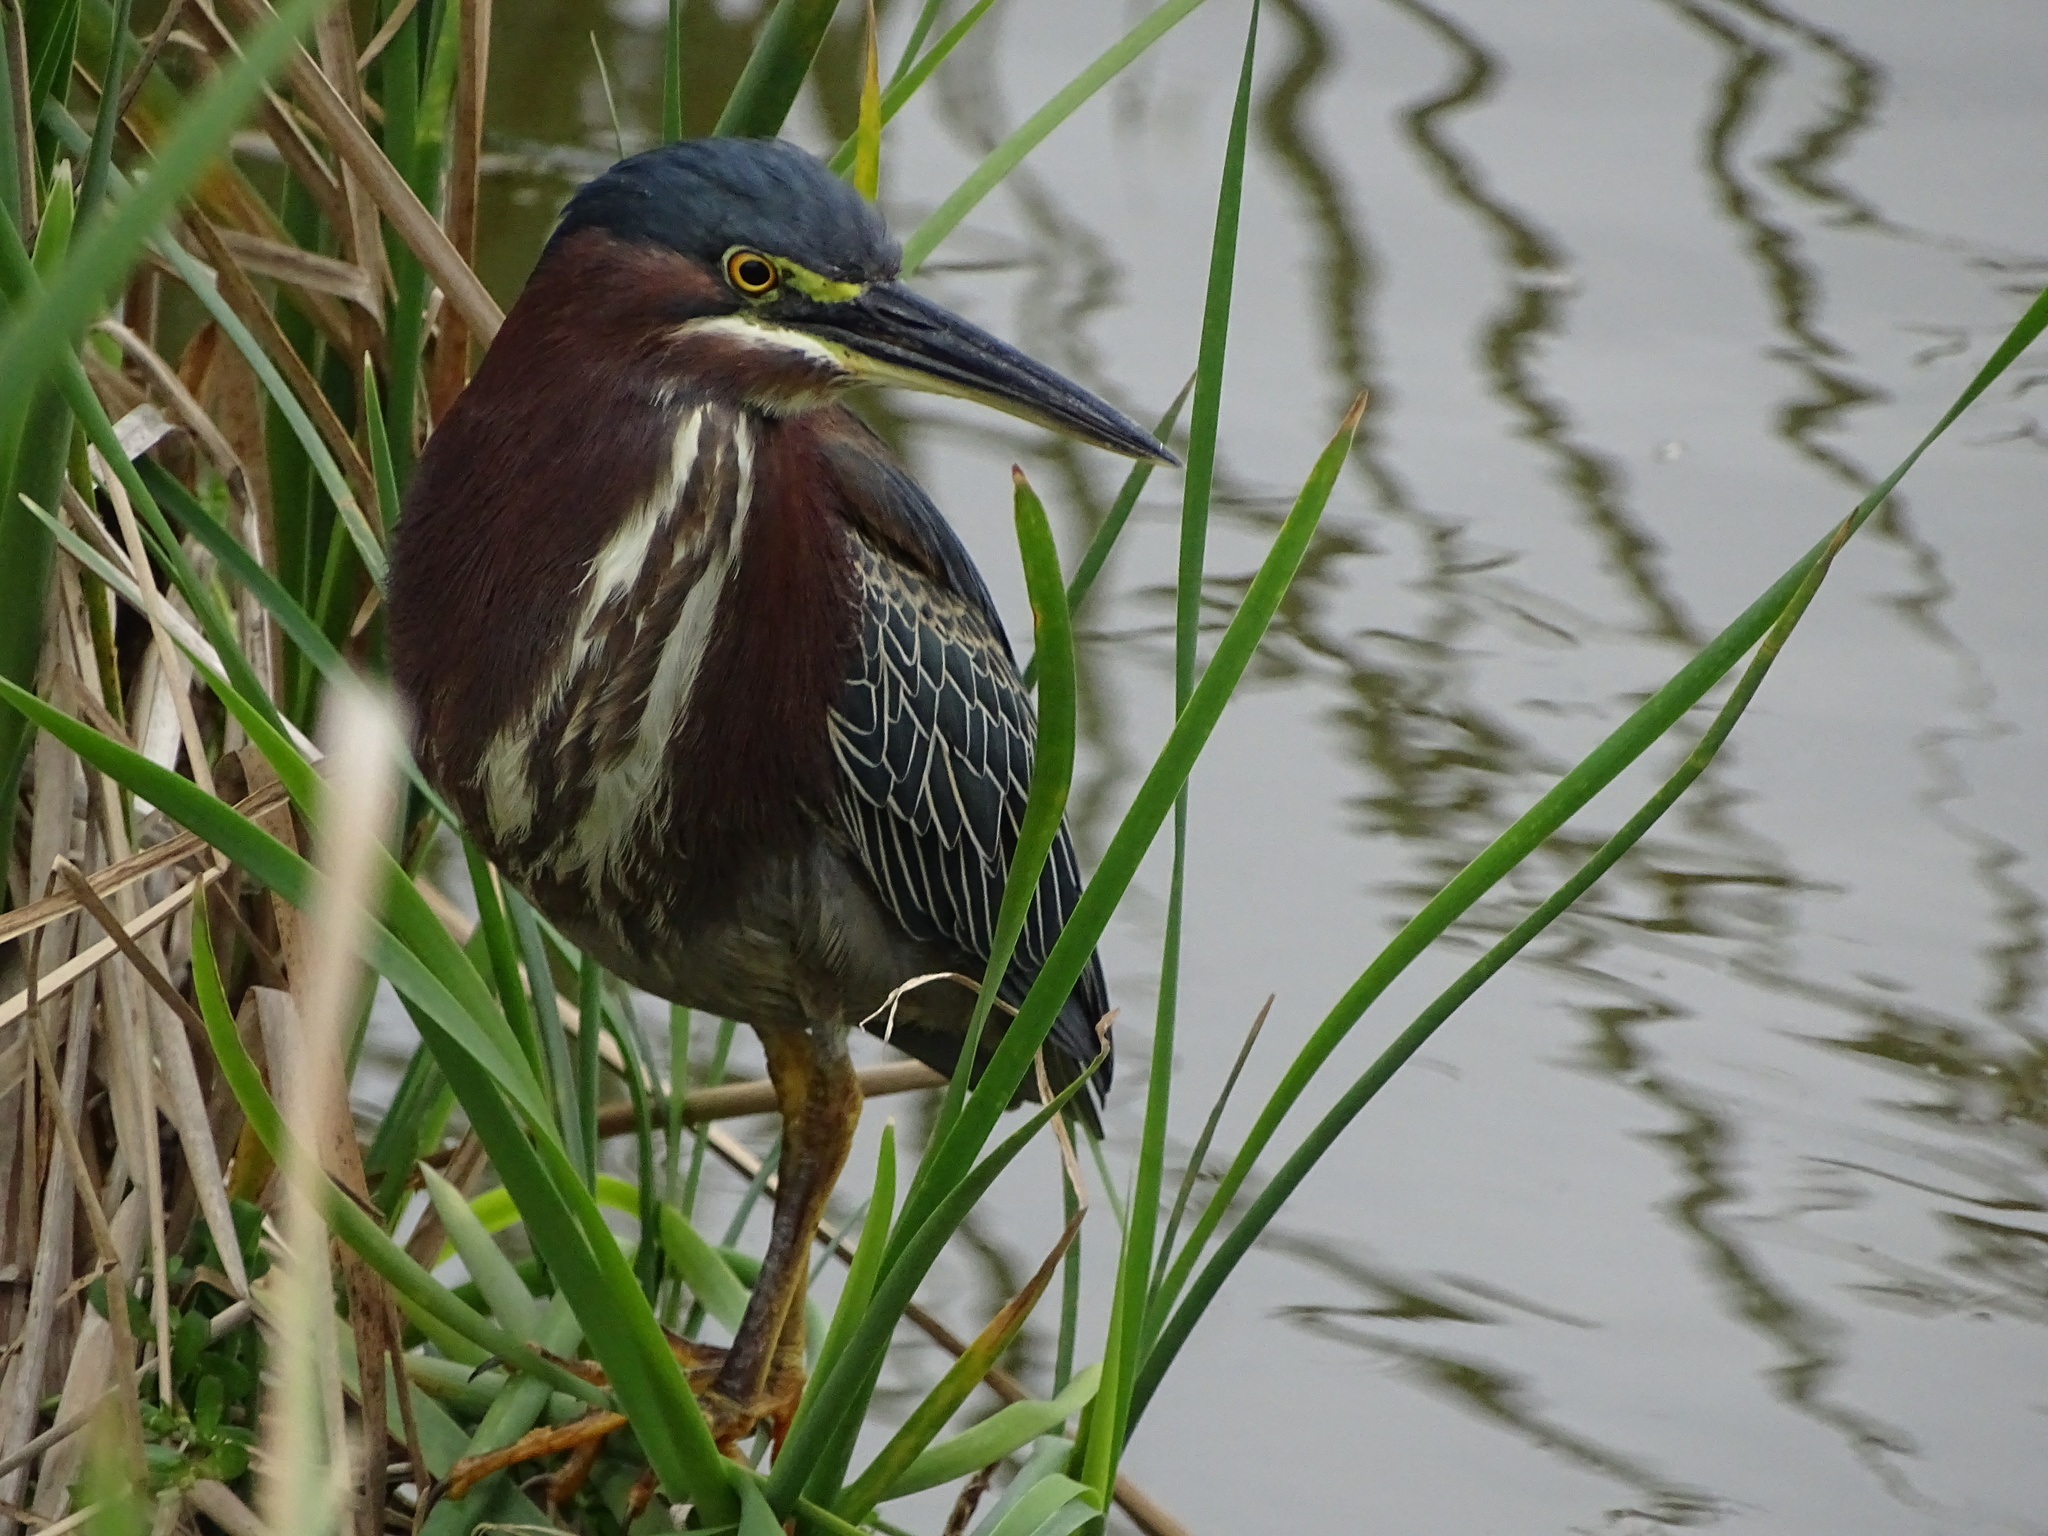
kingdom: Animalia
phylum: Chordata
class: Aves
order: Pelecaniformes
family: Ardeidae
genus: Butorides
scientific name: Butorides virescens
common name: Green heron
